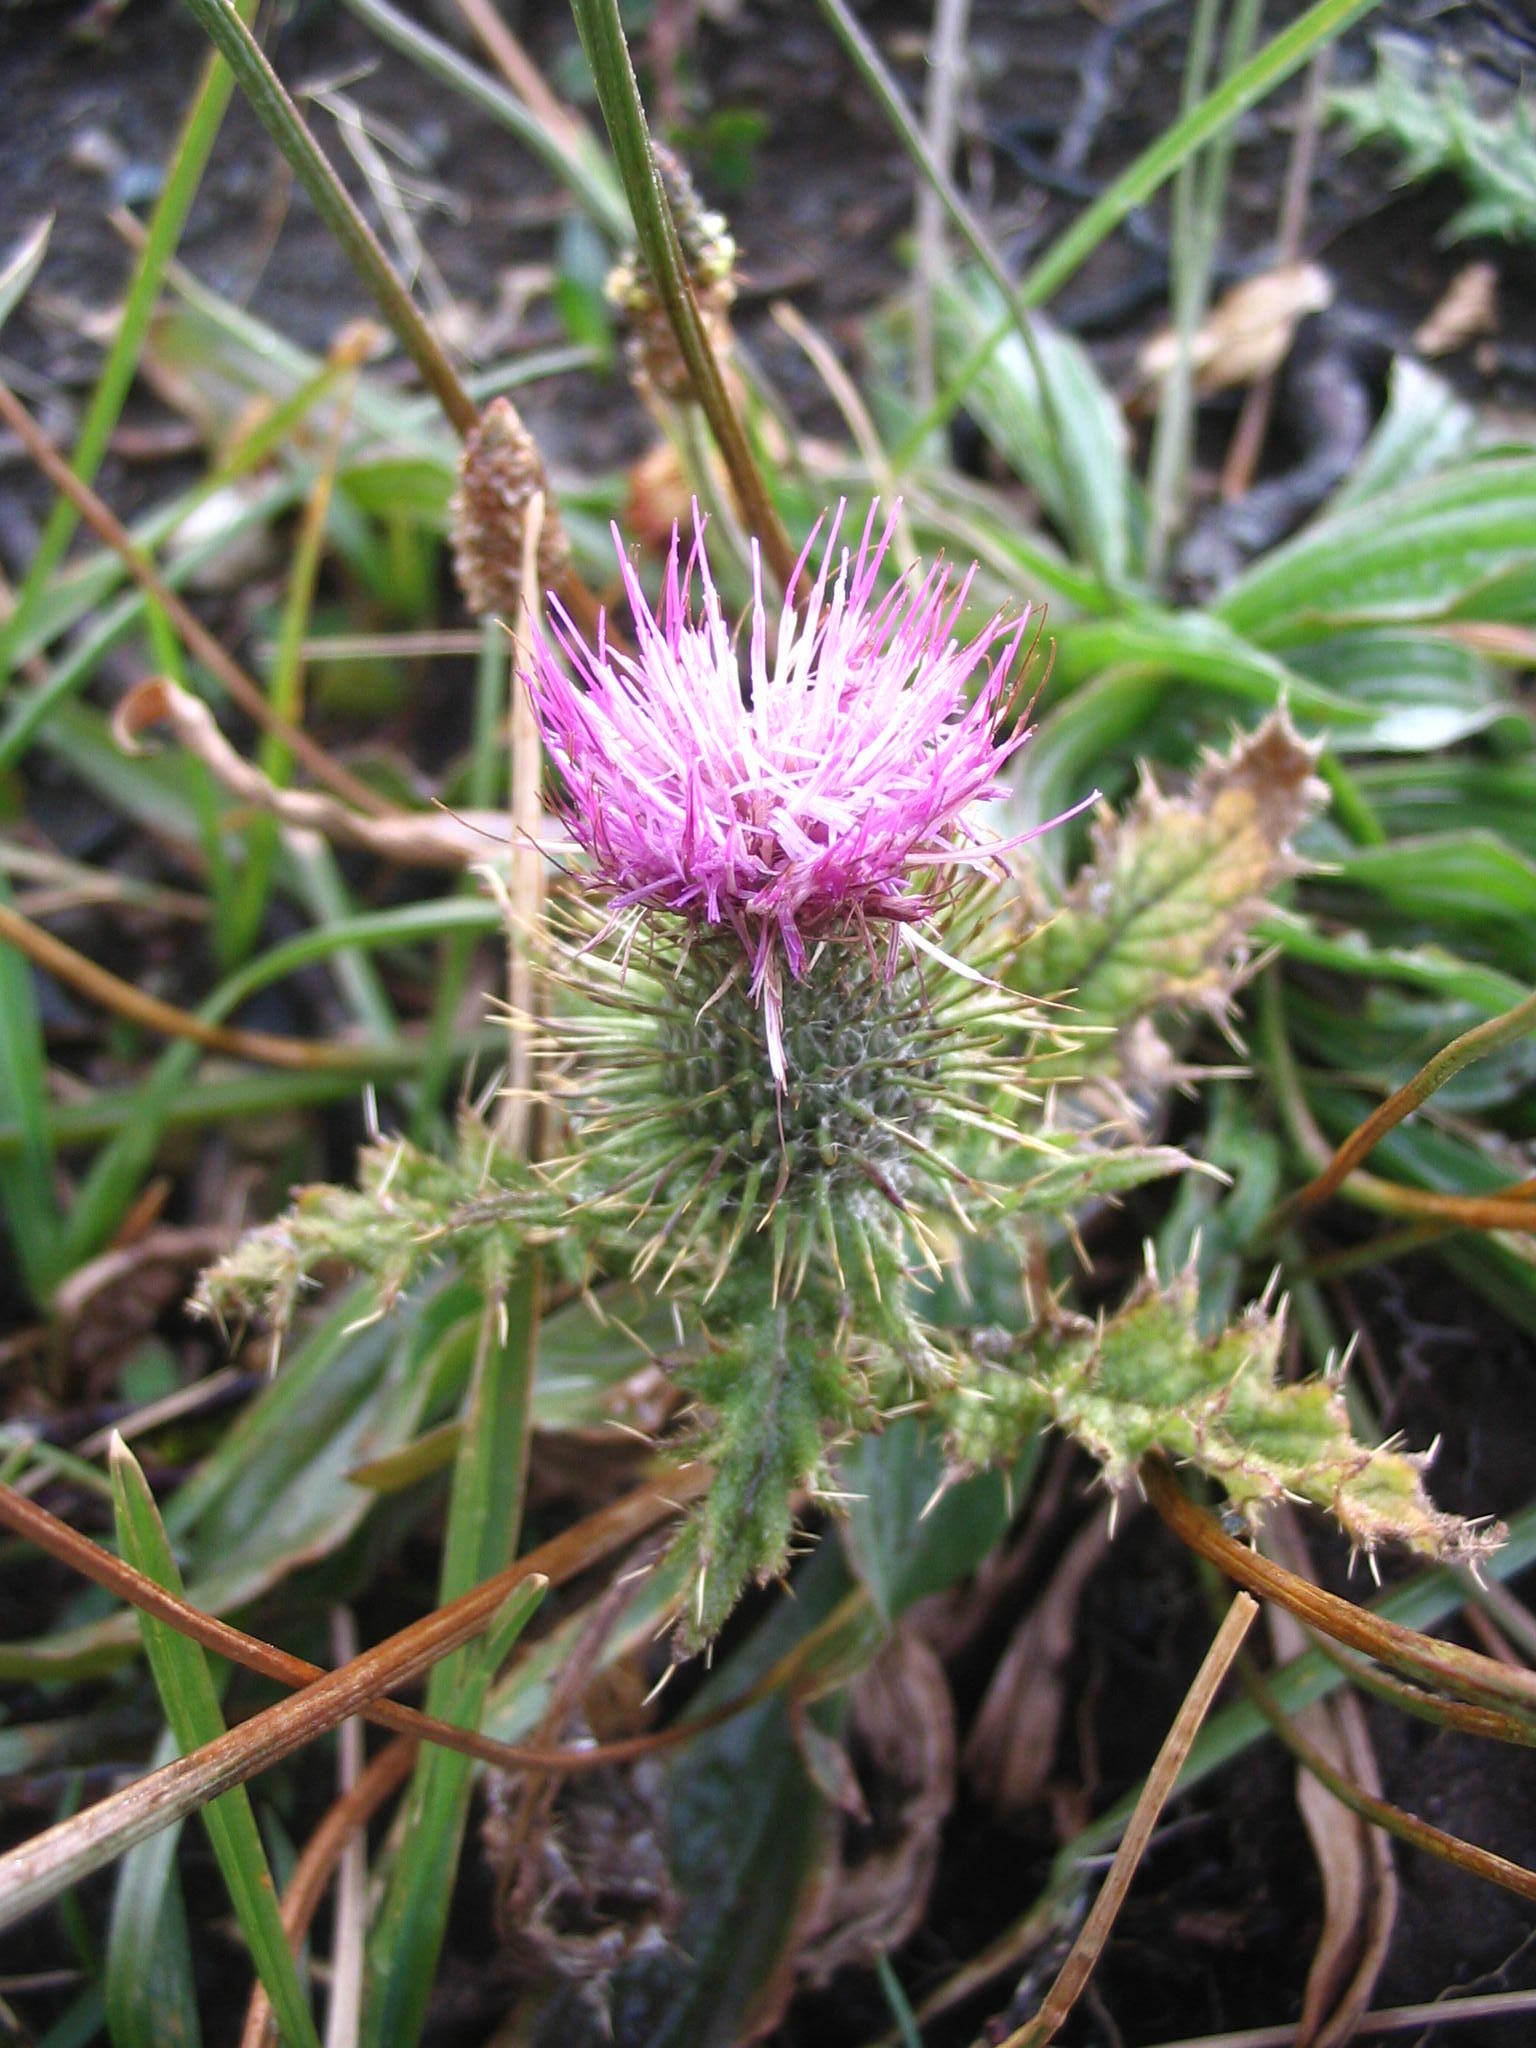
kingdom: Plantae
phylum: Tracheophyta
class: Magnoliopsida
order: Asterales
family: Asteraceae
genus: Cirsium
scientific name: Cirsium vulgare
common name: Bull thistle
